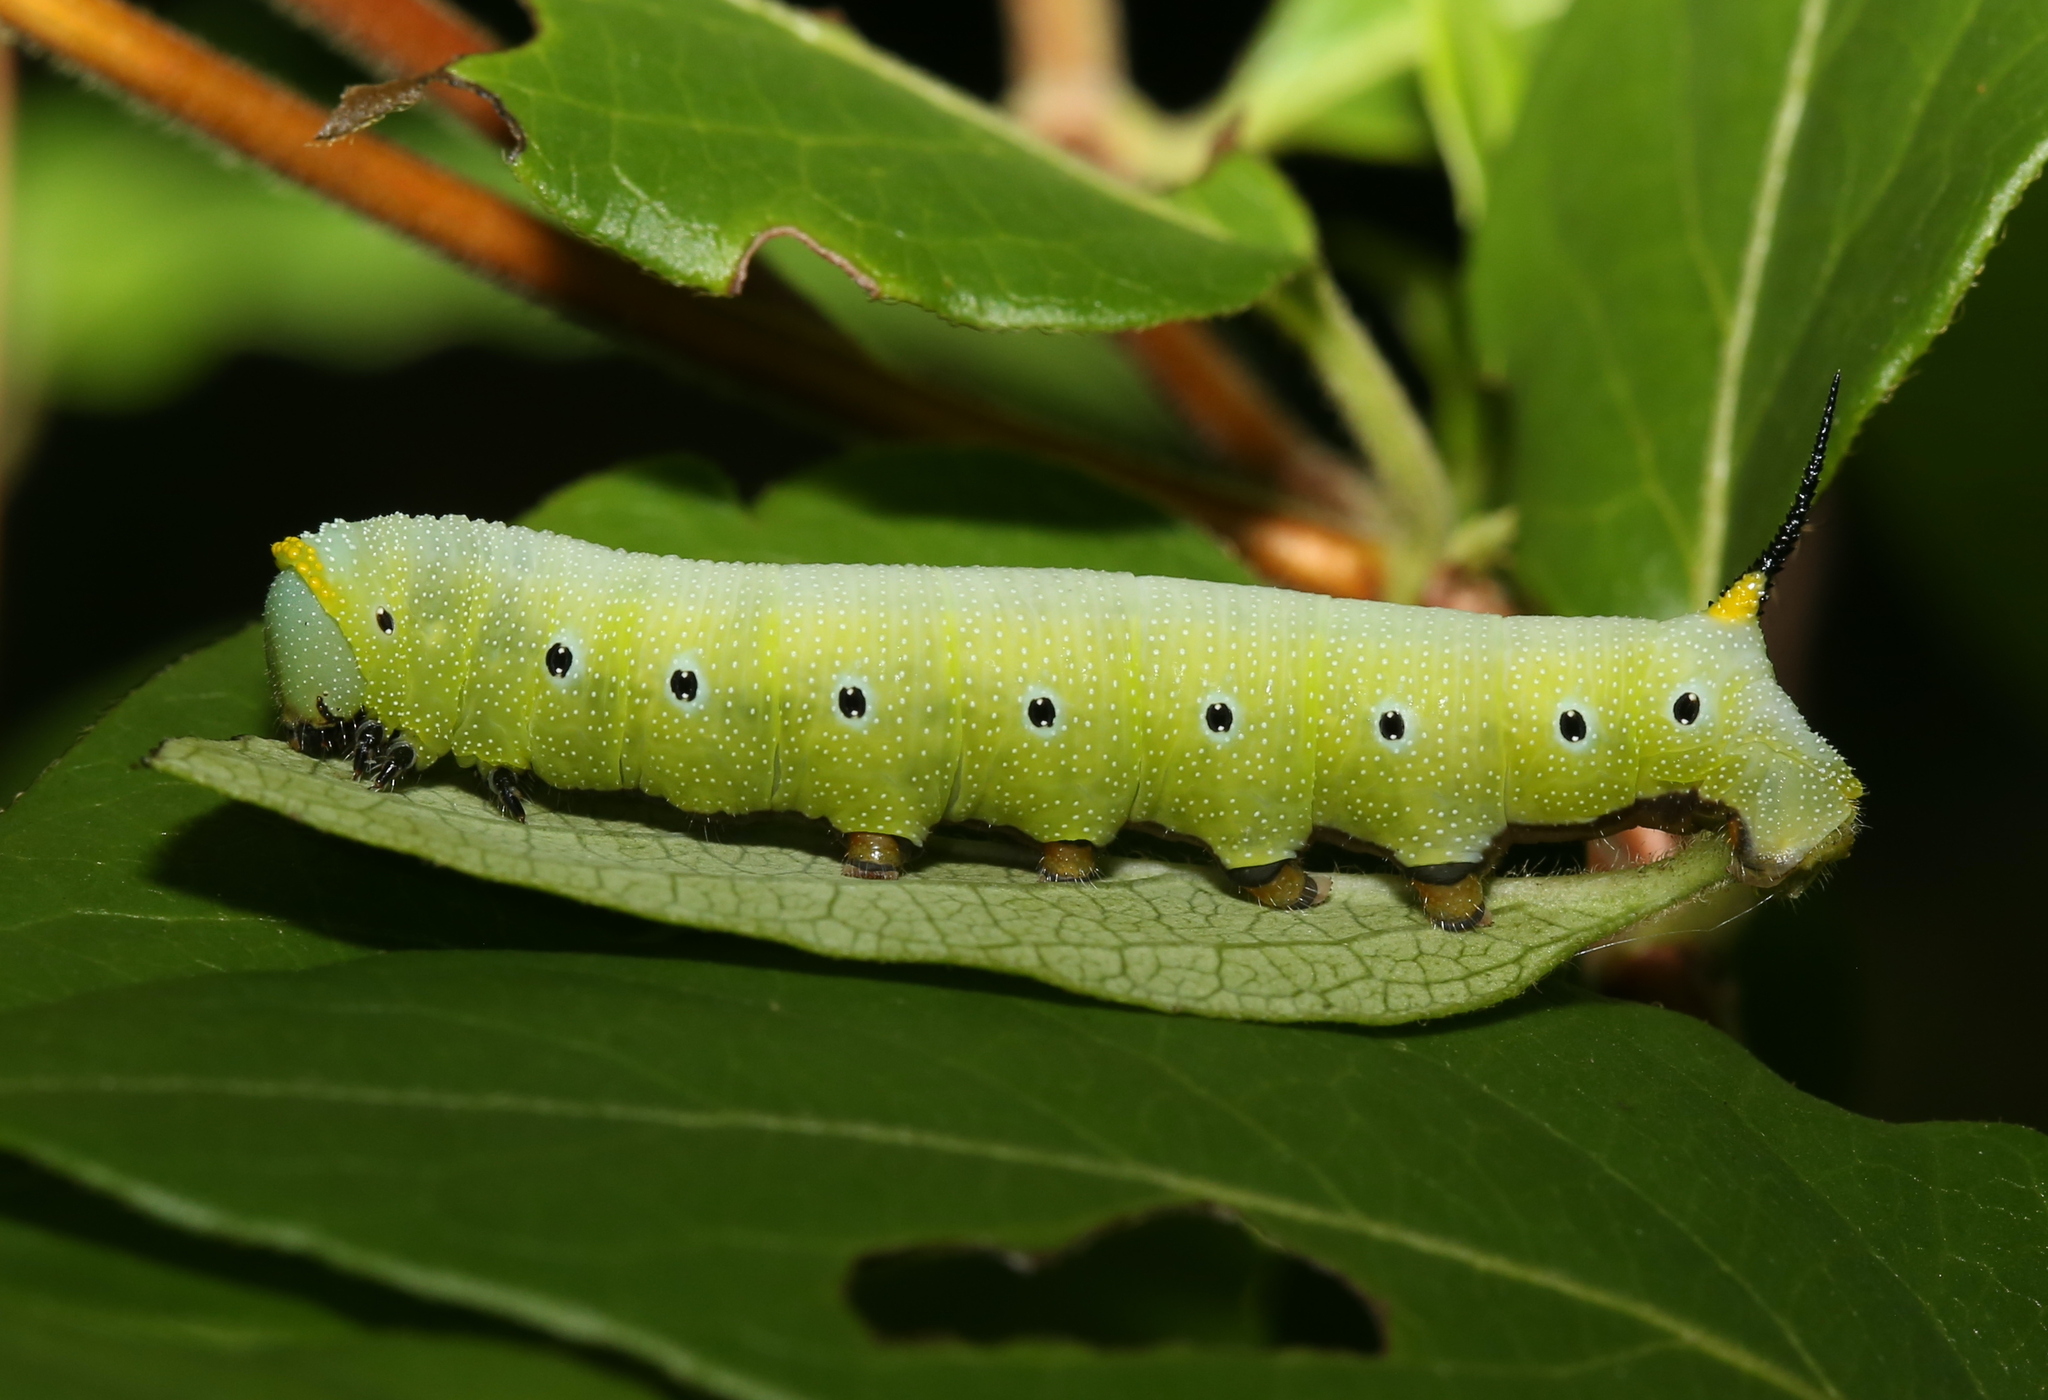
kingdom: Animalia
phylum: Arthropoda
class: Insecta
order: Lepidoptera
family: Sphingidae
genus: Hemaris
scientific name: Hemaris diffinis
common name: Bumblebee moth
